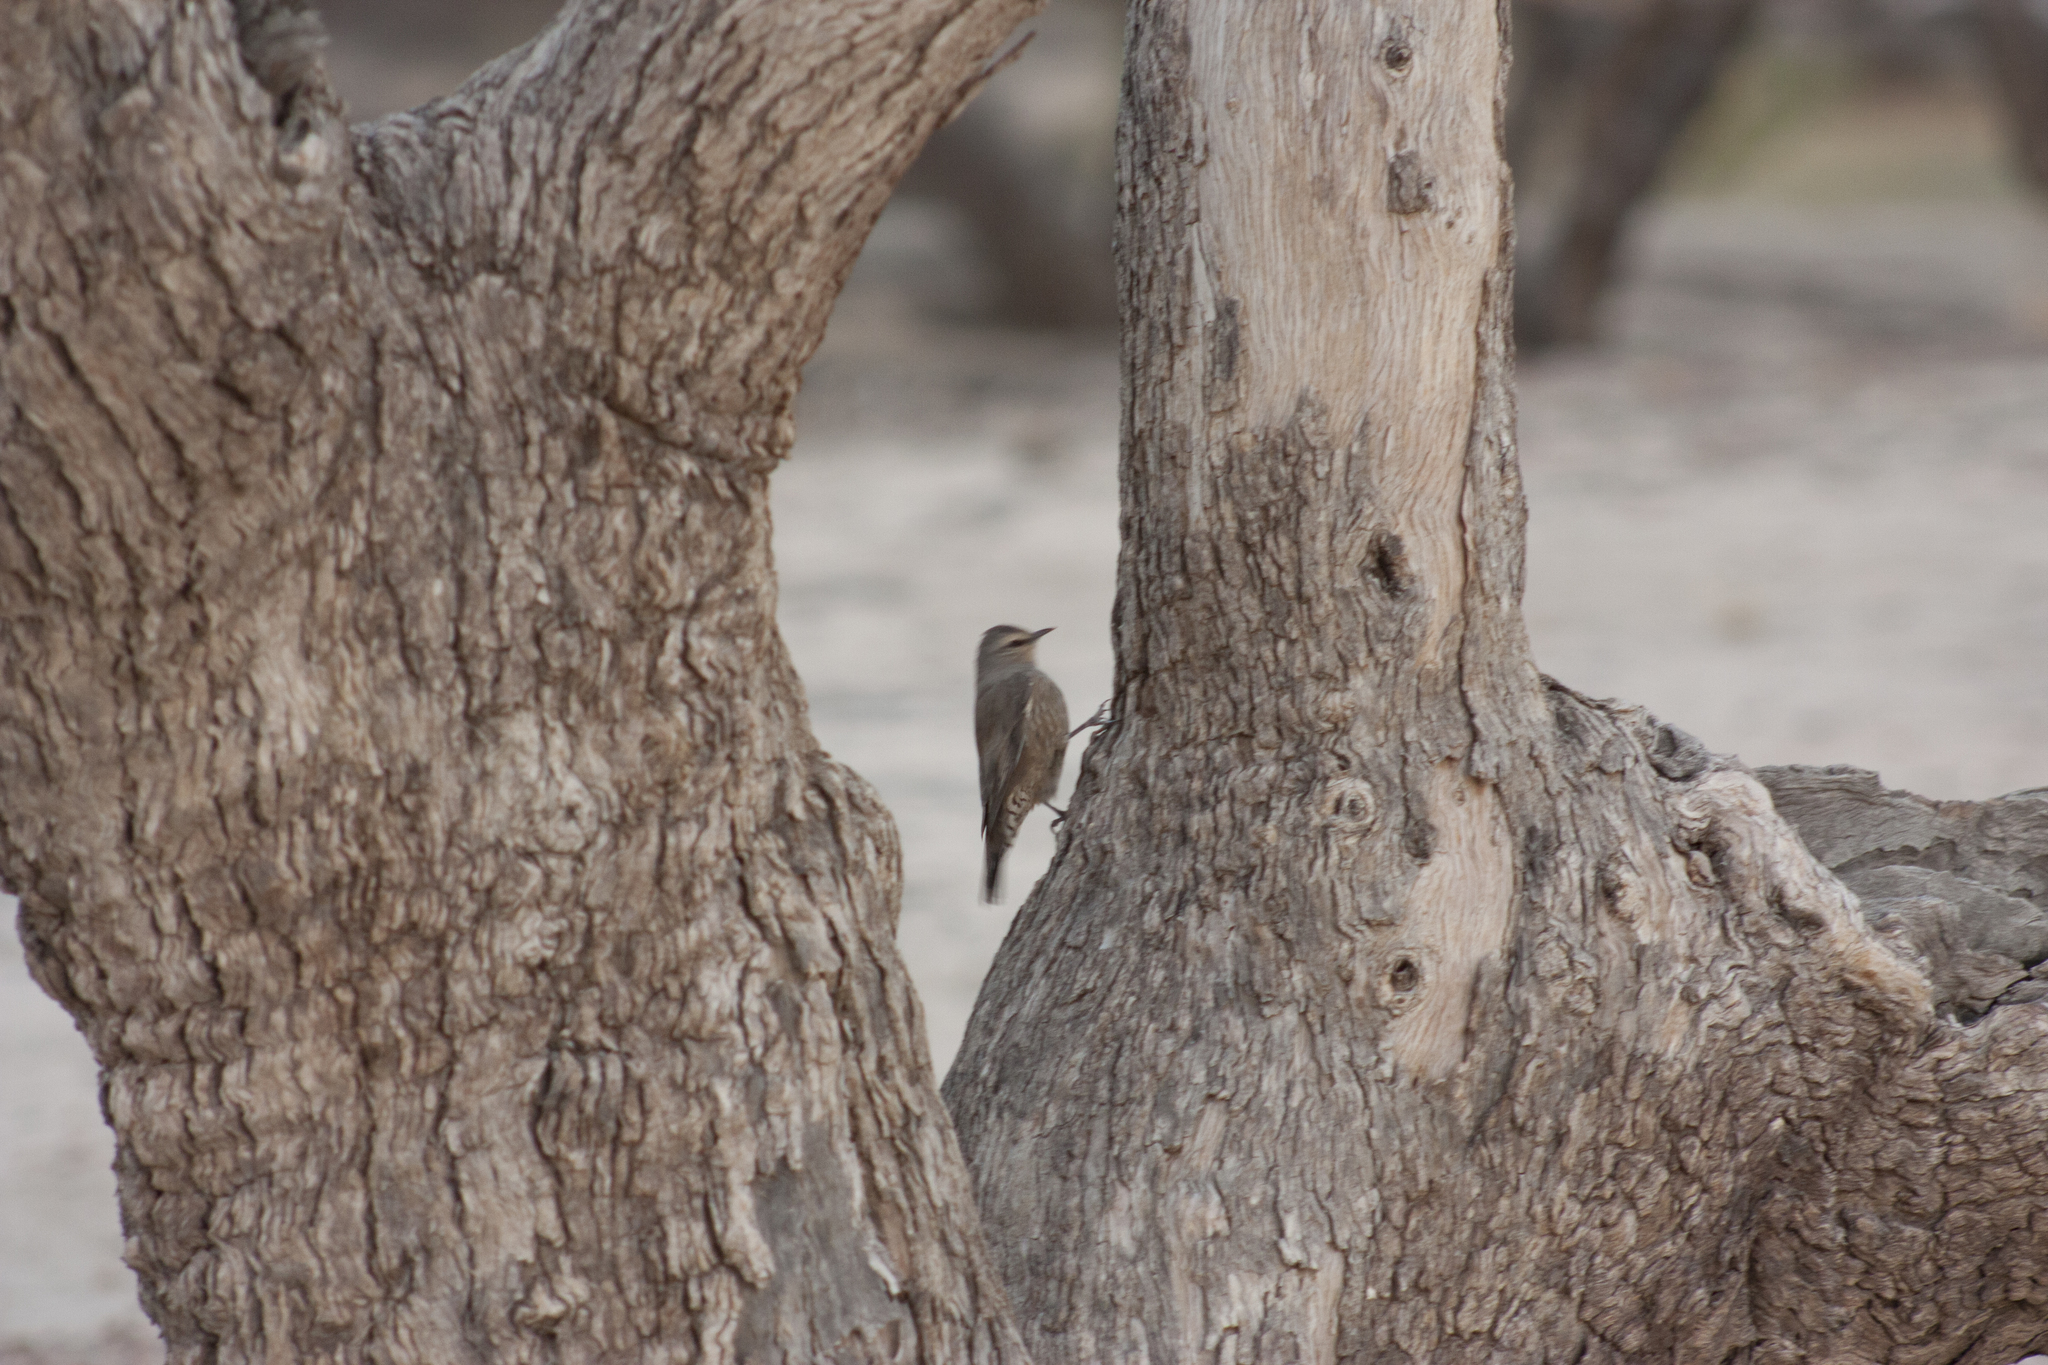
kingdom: Animalia
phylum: Chordata
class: Aves
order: Passeriformes
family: Climacteridae
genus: Climacteris
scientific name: Climacteris picumnus
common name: Brown treecreeper
